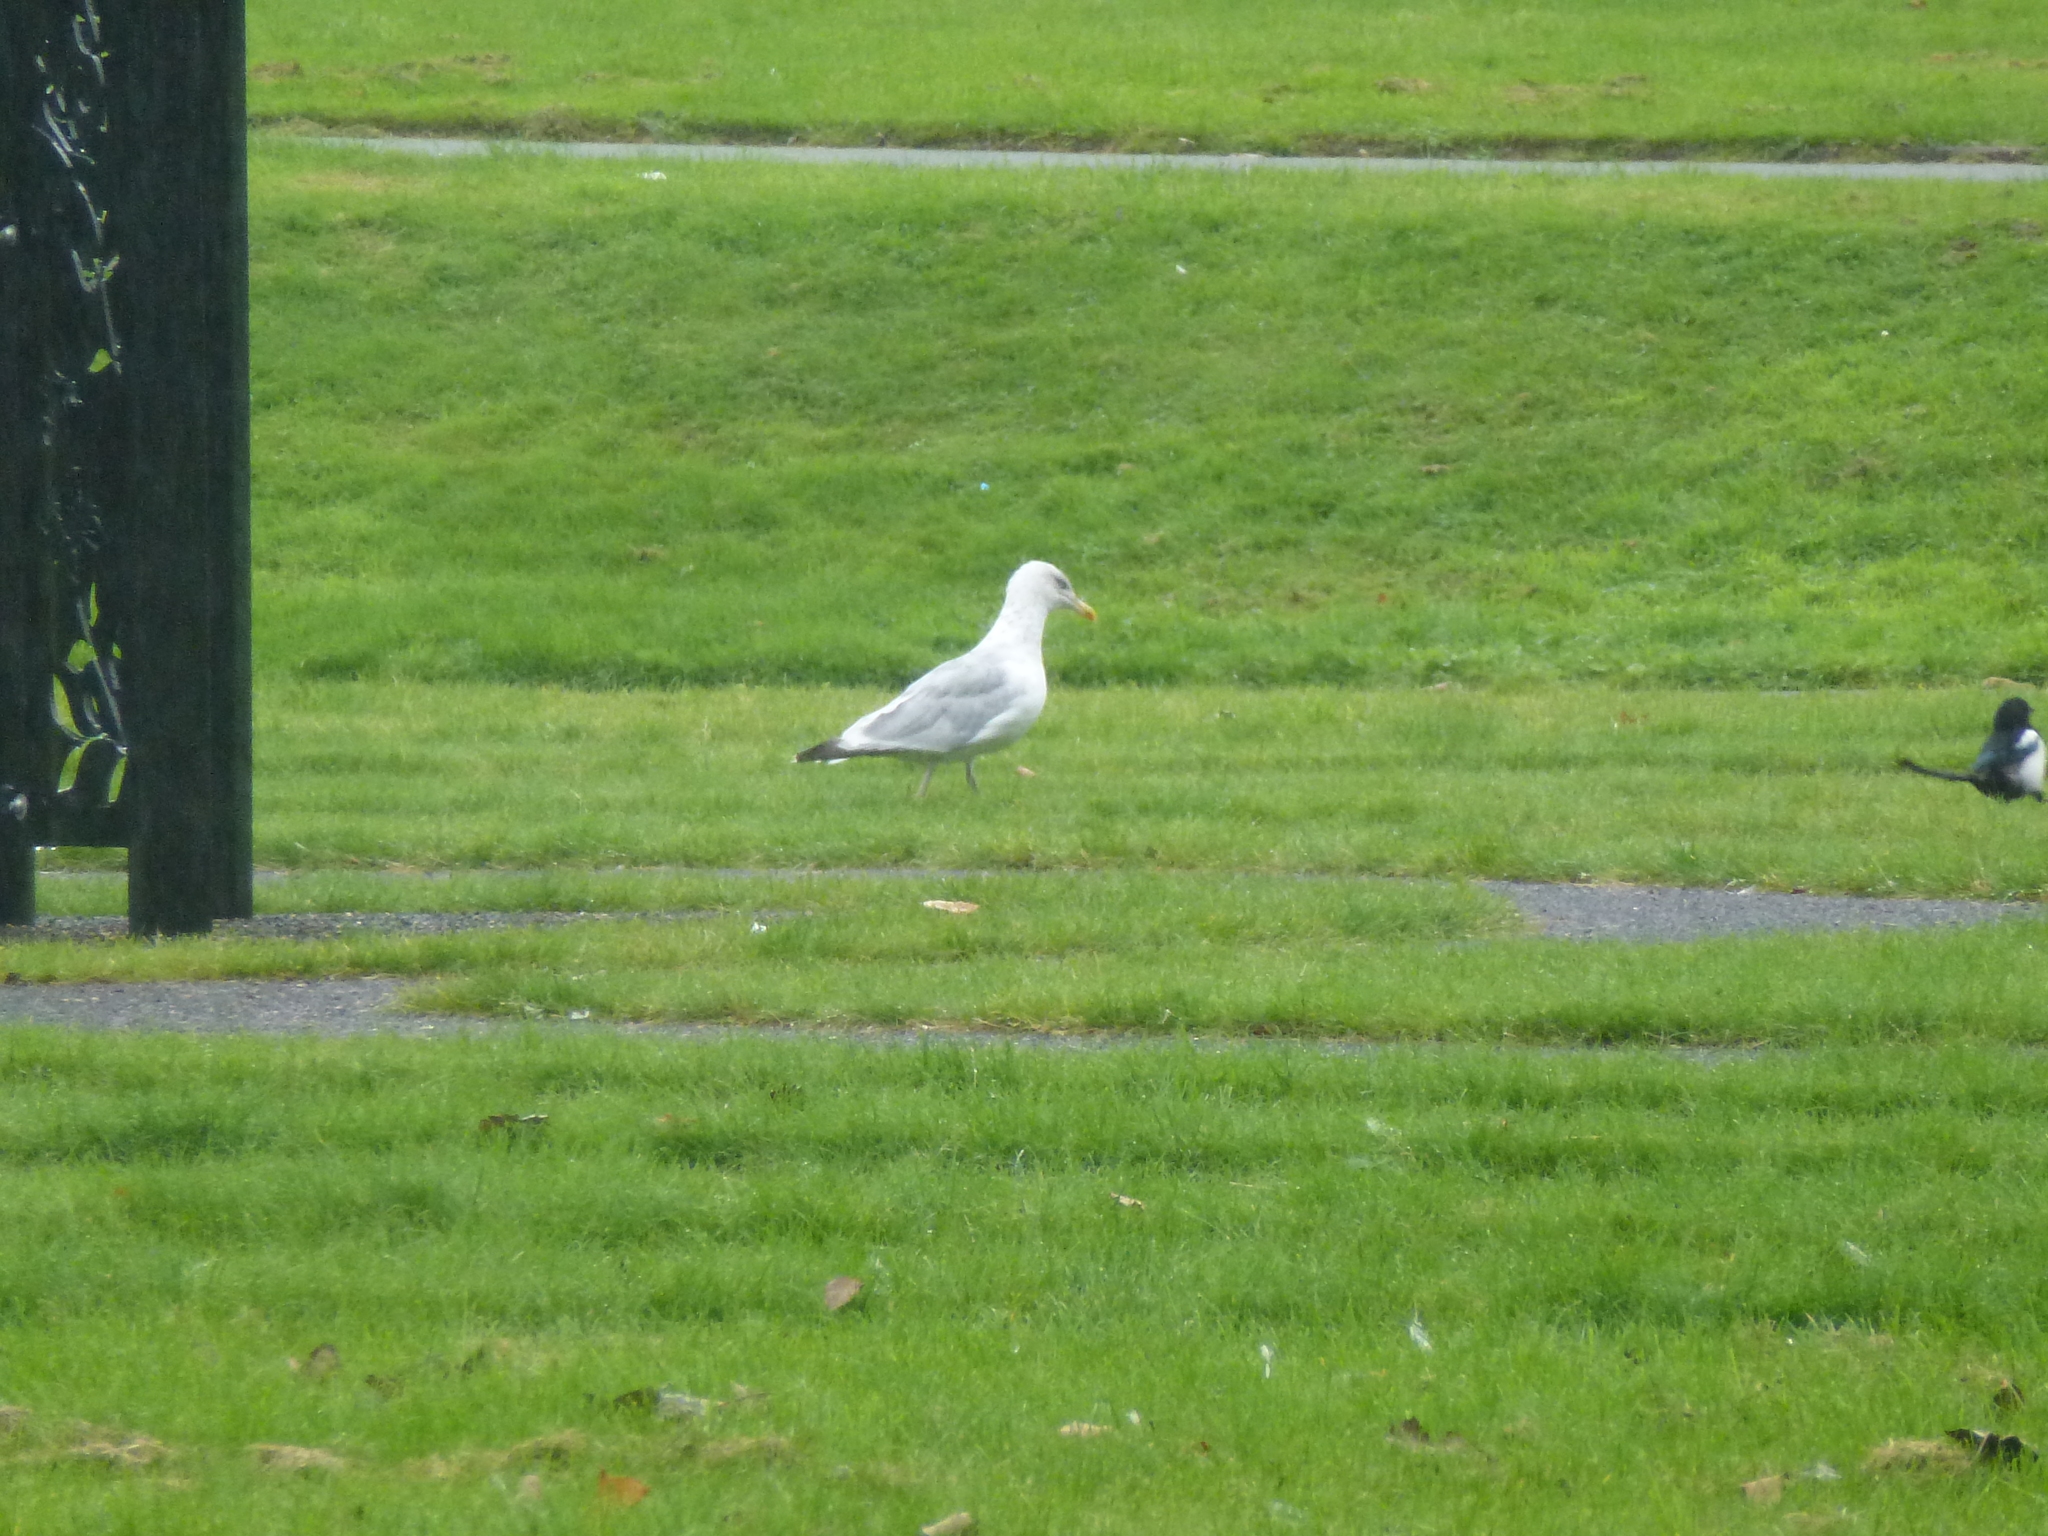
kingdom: Animalia
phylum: Chordata
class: Aves
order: Charadriiformes
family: Laridae
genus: Larus
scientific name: Larus argentatus
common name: Herring gull
